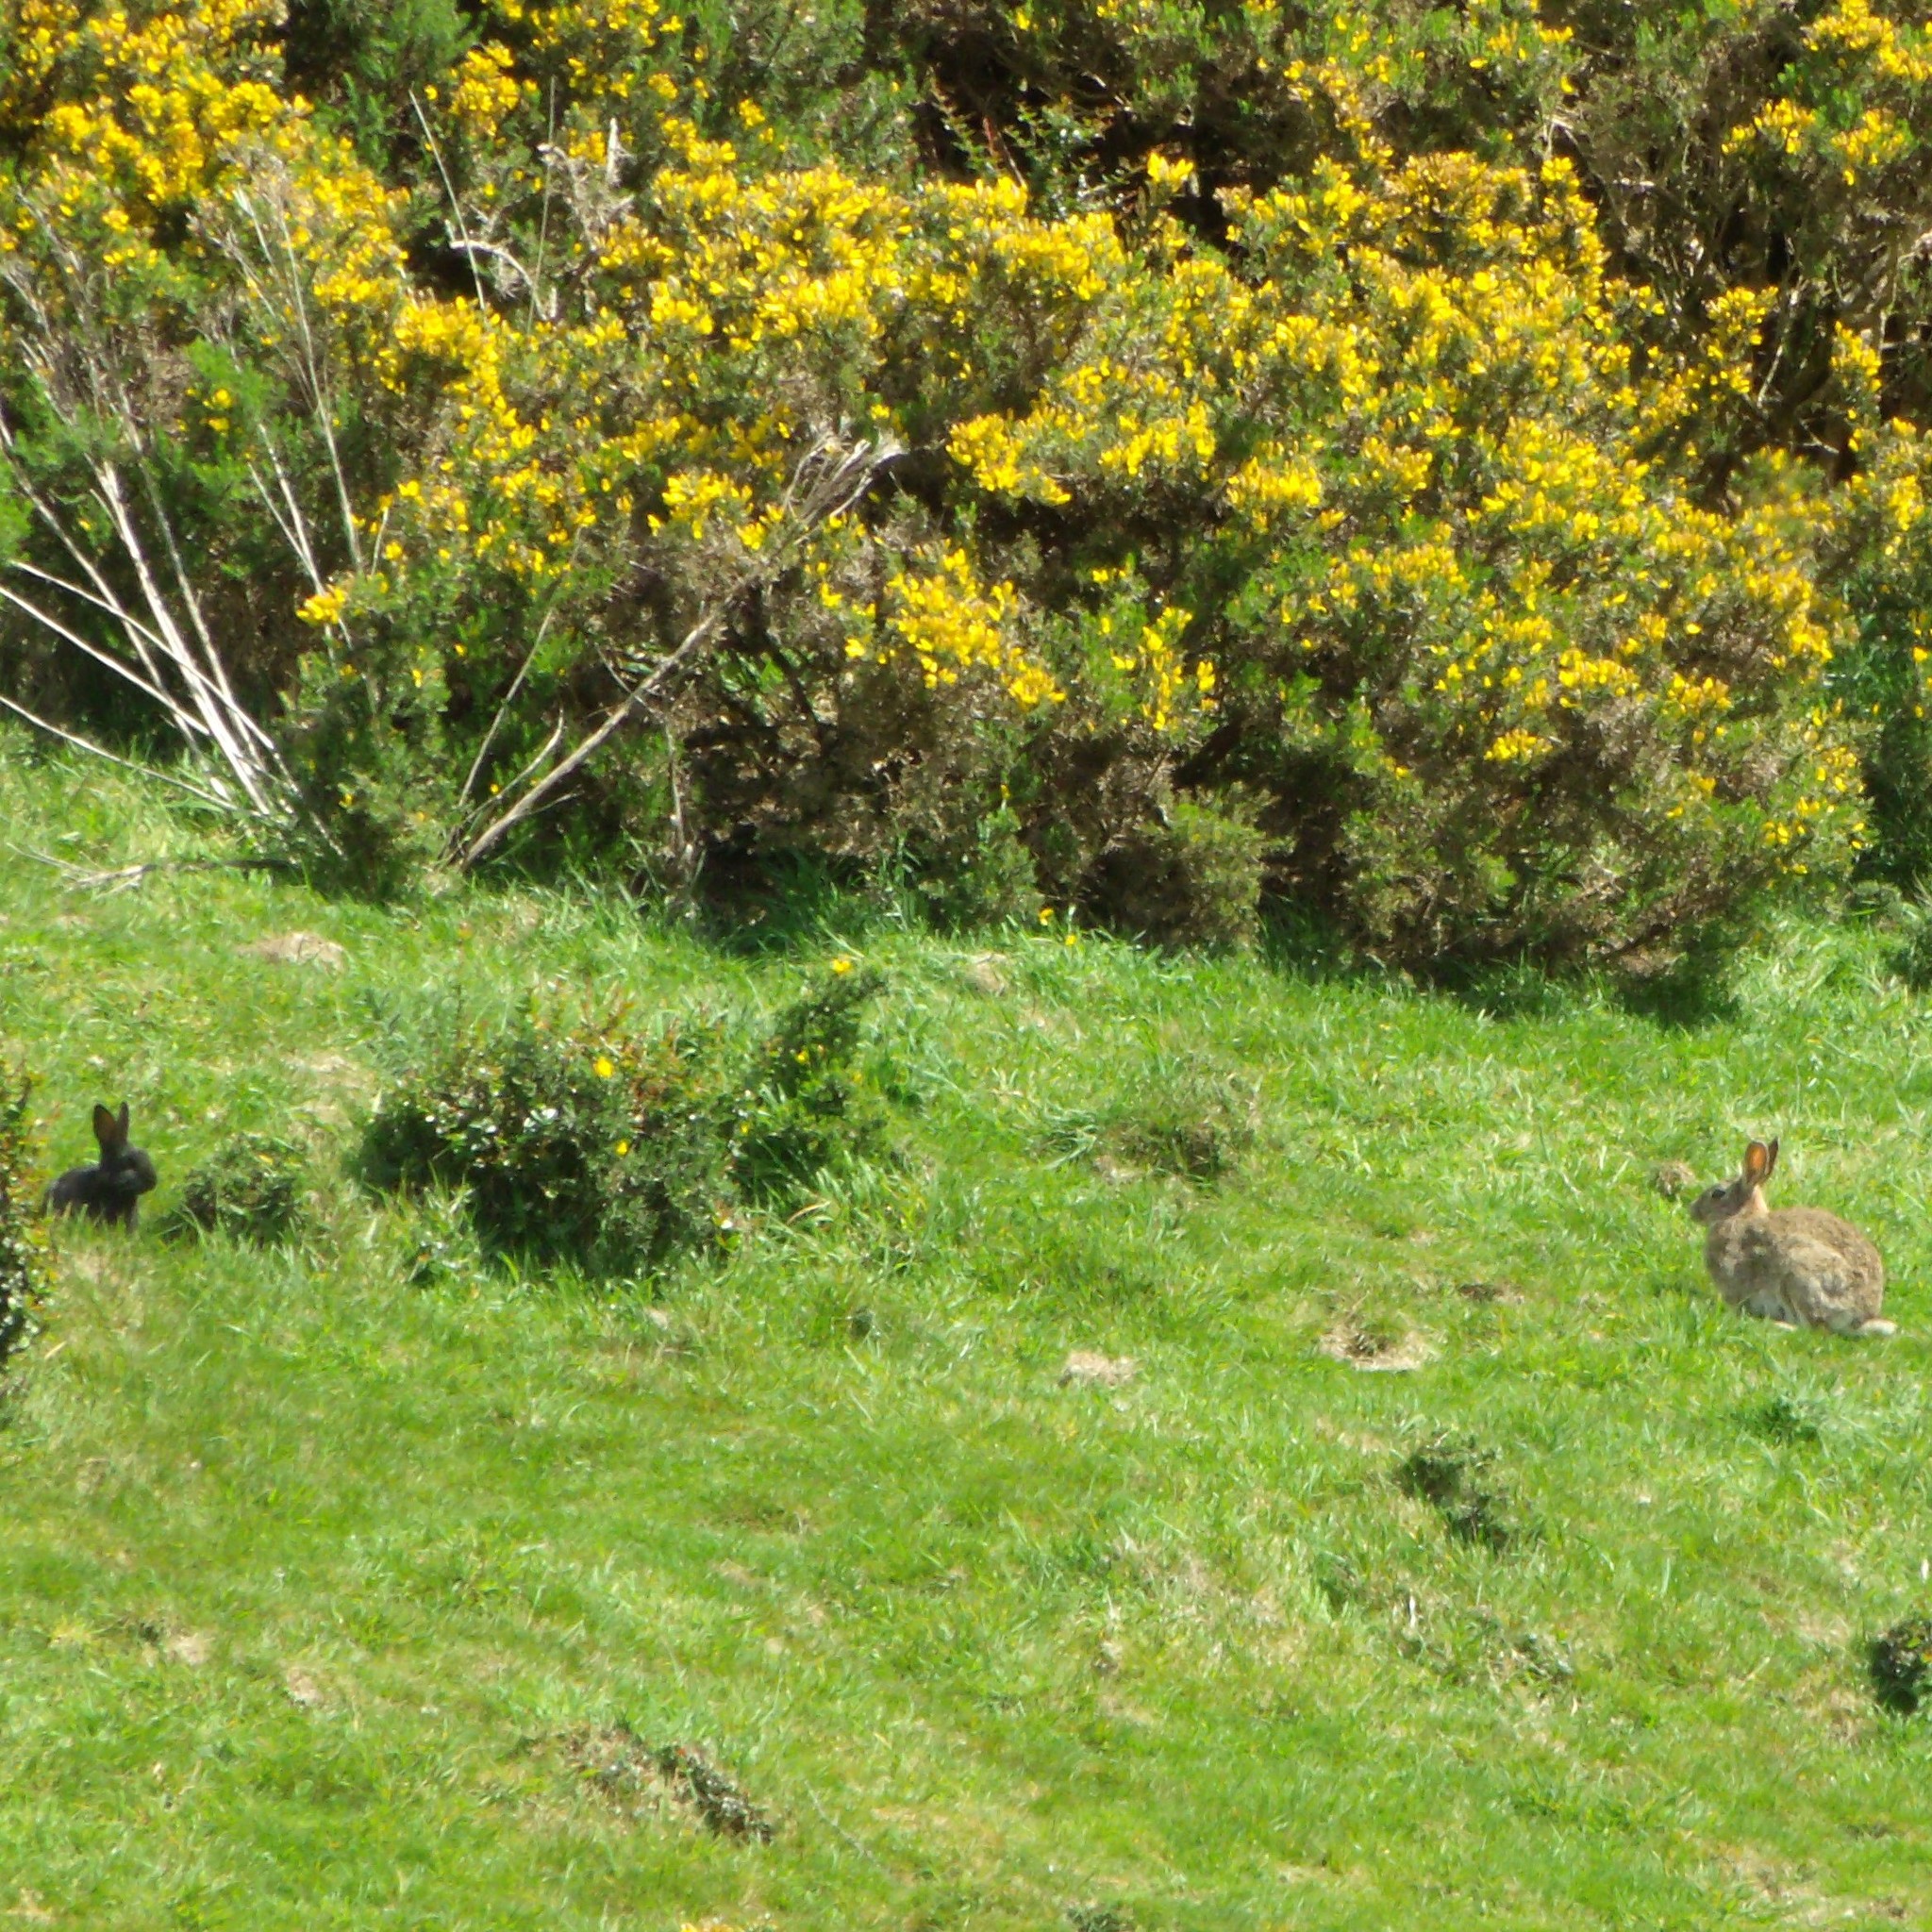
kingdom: Animalia
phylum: Chordata
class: Mammalia
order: Lagomorpha
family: Leporidae
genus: Oryctolagus
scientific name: Oryctolagus cuniculus
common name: European rabbit
